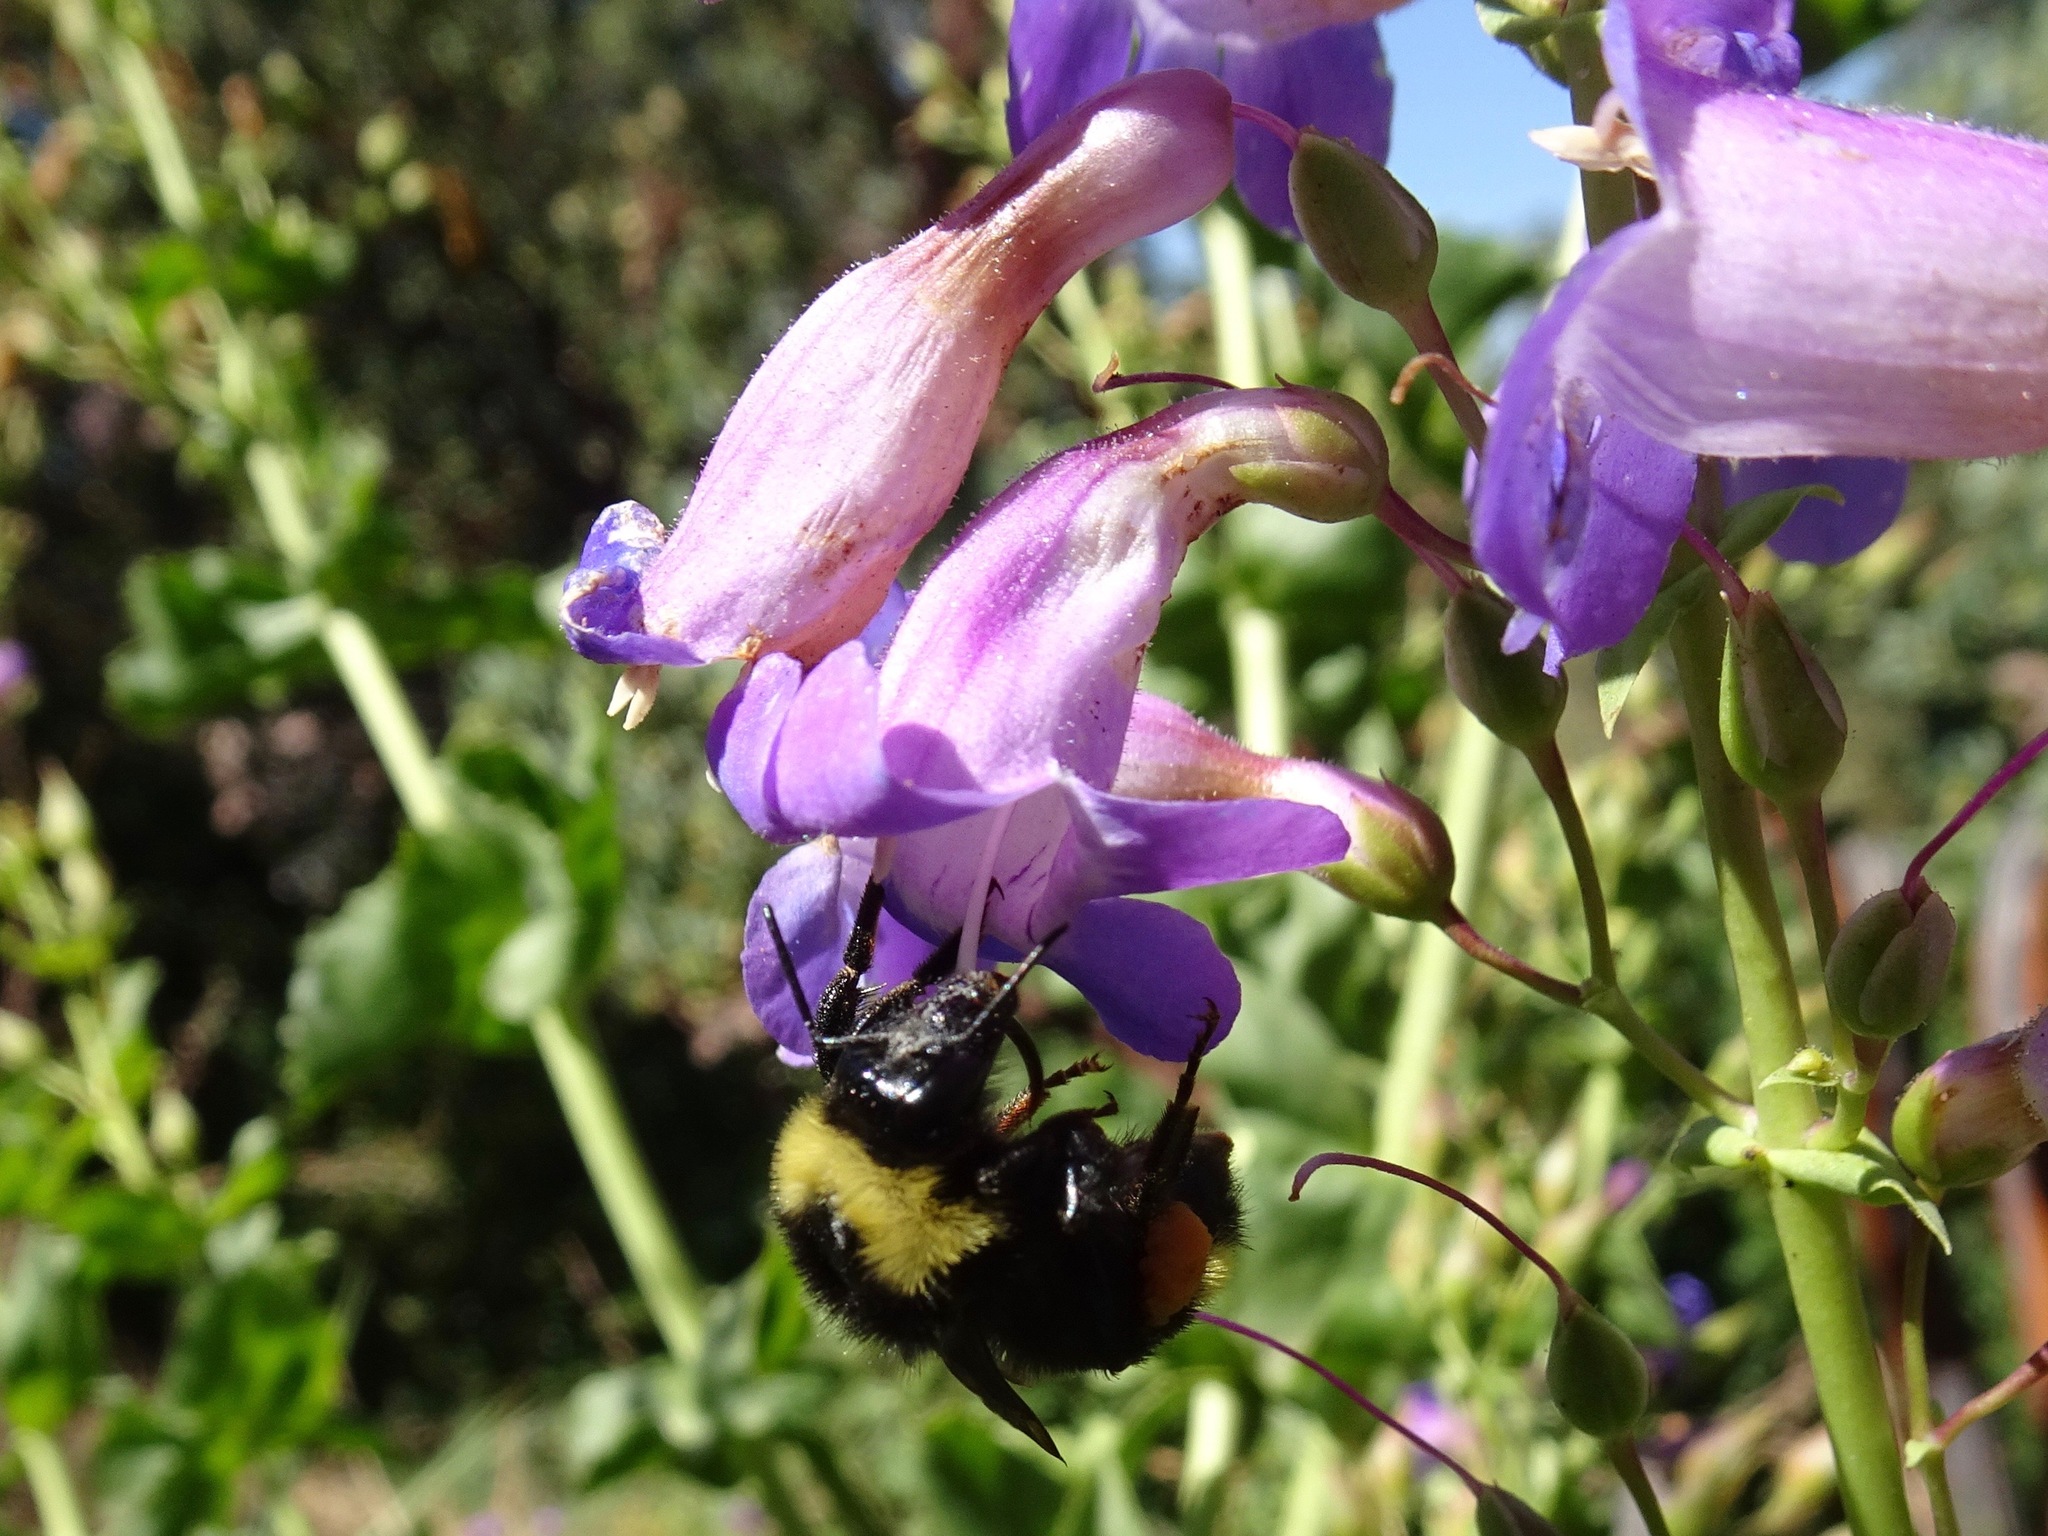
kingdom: Animalia
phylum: Arthropoda
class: Insecta
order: Hymenoptera
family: Apidae
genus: Bombus
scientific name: Bombus californicus
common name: California bumble bee
